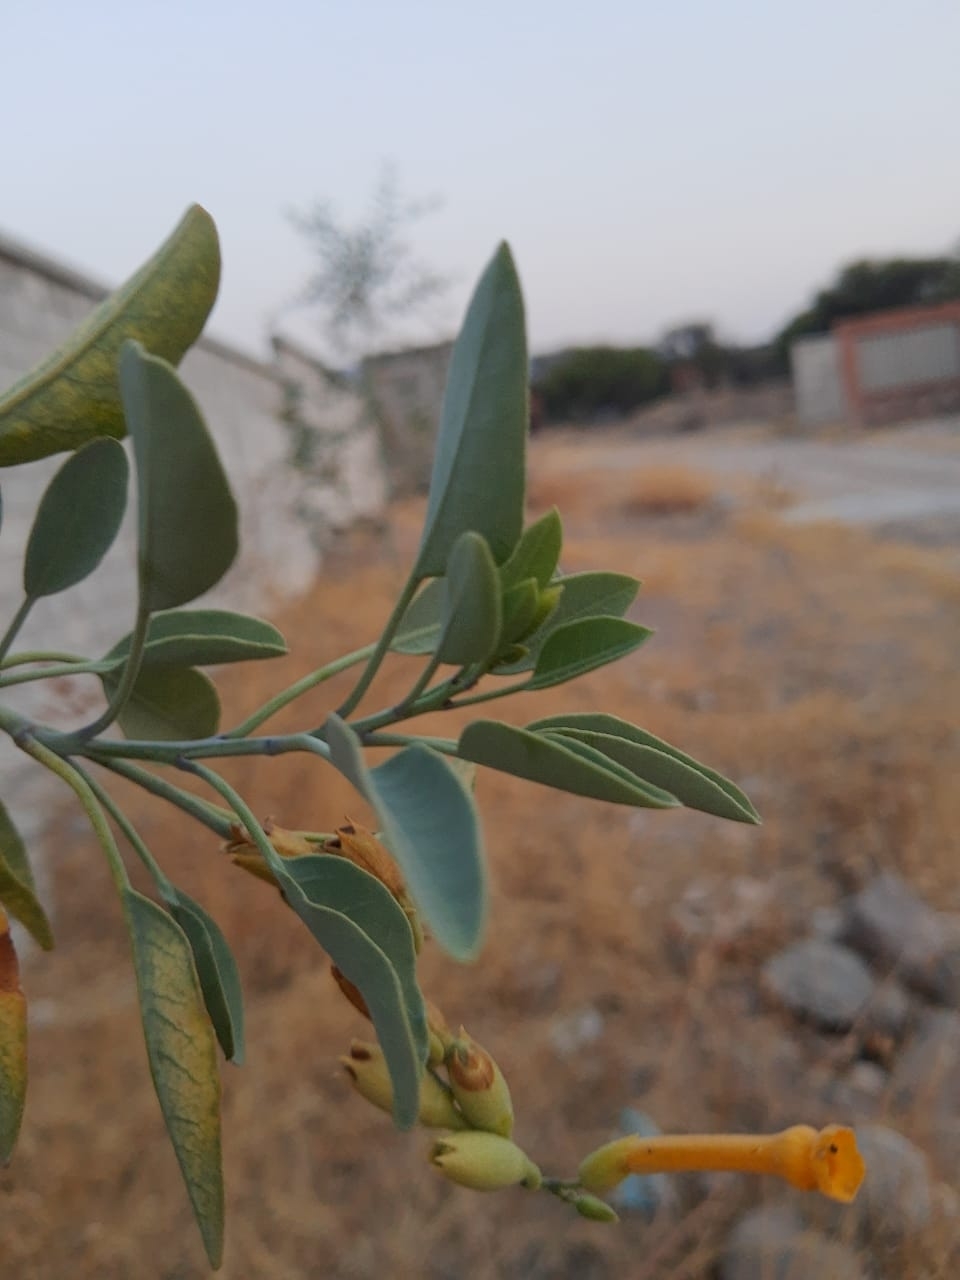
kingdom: Plantae
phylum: Tracheophyta
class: Magnoliopsida
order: Solanales
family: Solanaceae
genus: Nicotiana
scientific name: Nicotiana glauca
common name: Tree tobacco
